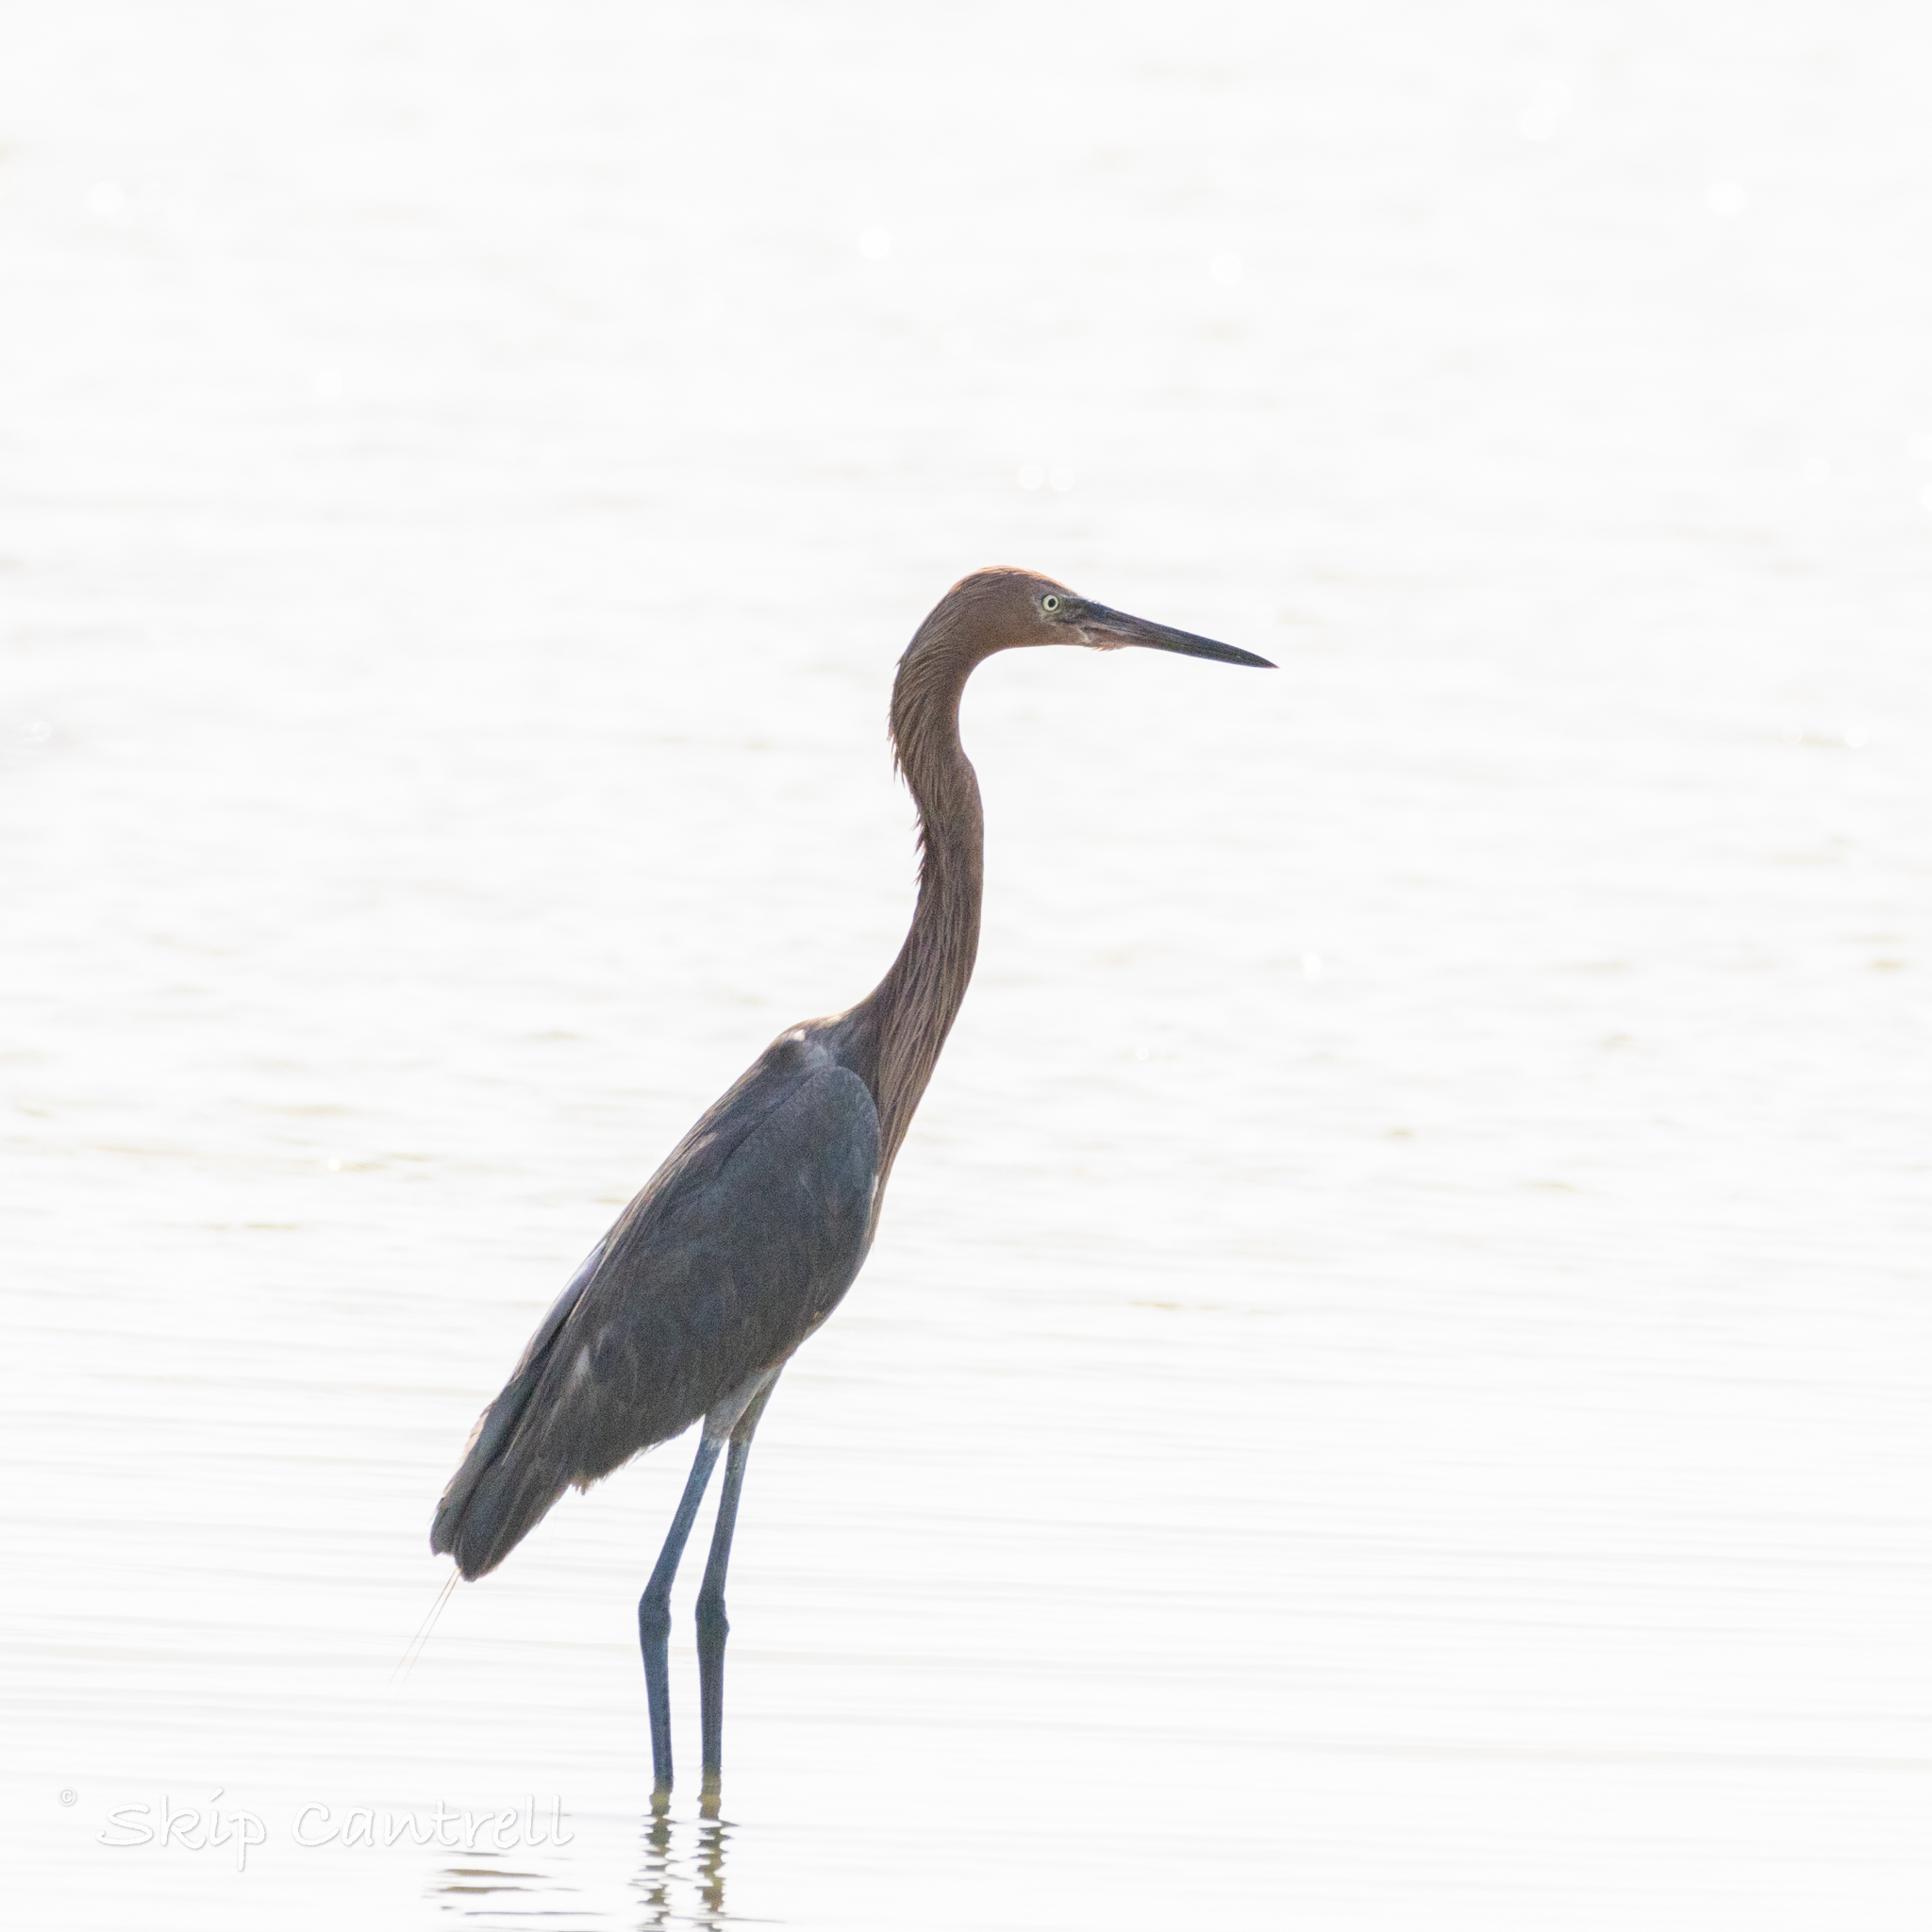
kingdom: Animalia
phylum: Chordata
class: Aves
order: Pelecaniformes
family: Ardeidae
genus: Egretta
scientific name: Egretta rufescens
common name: Reddish egret
